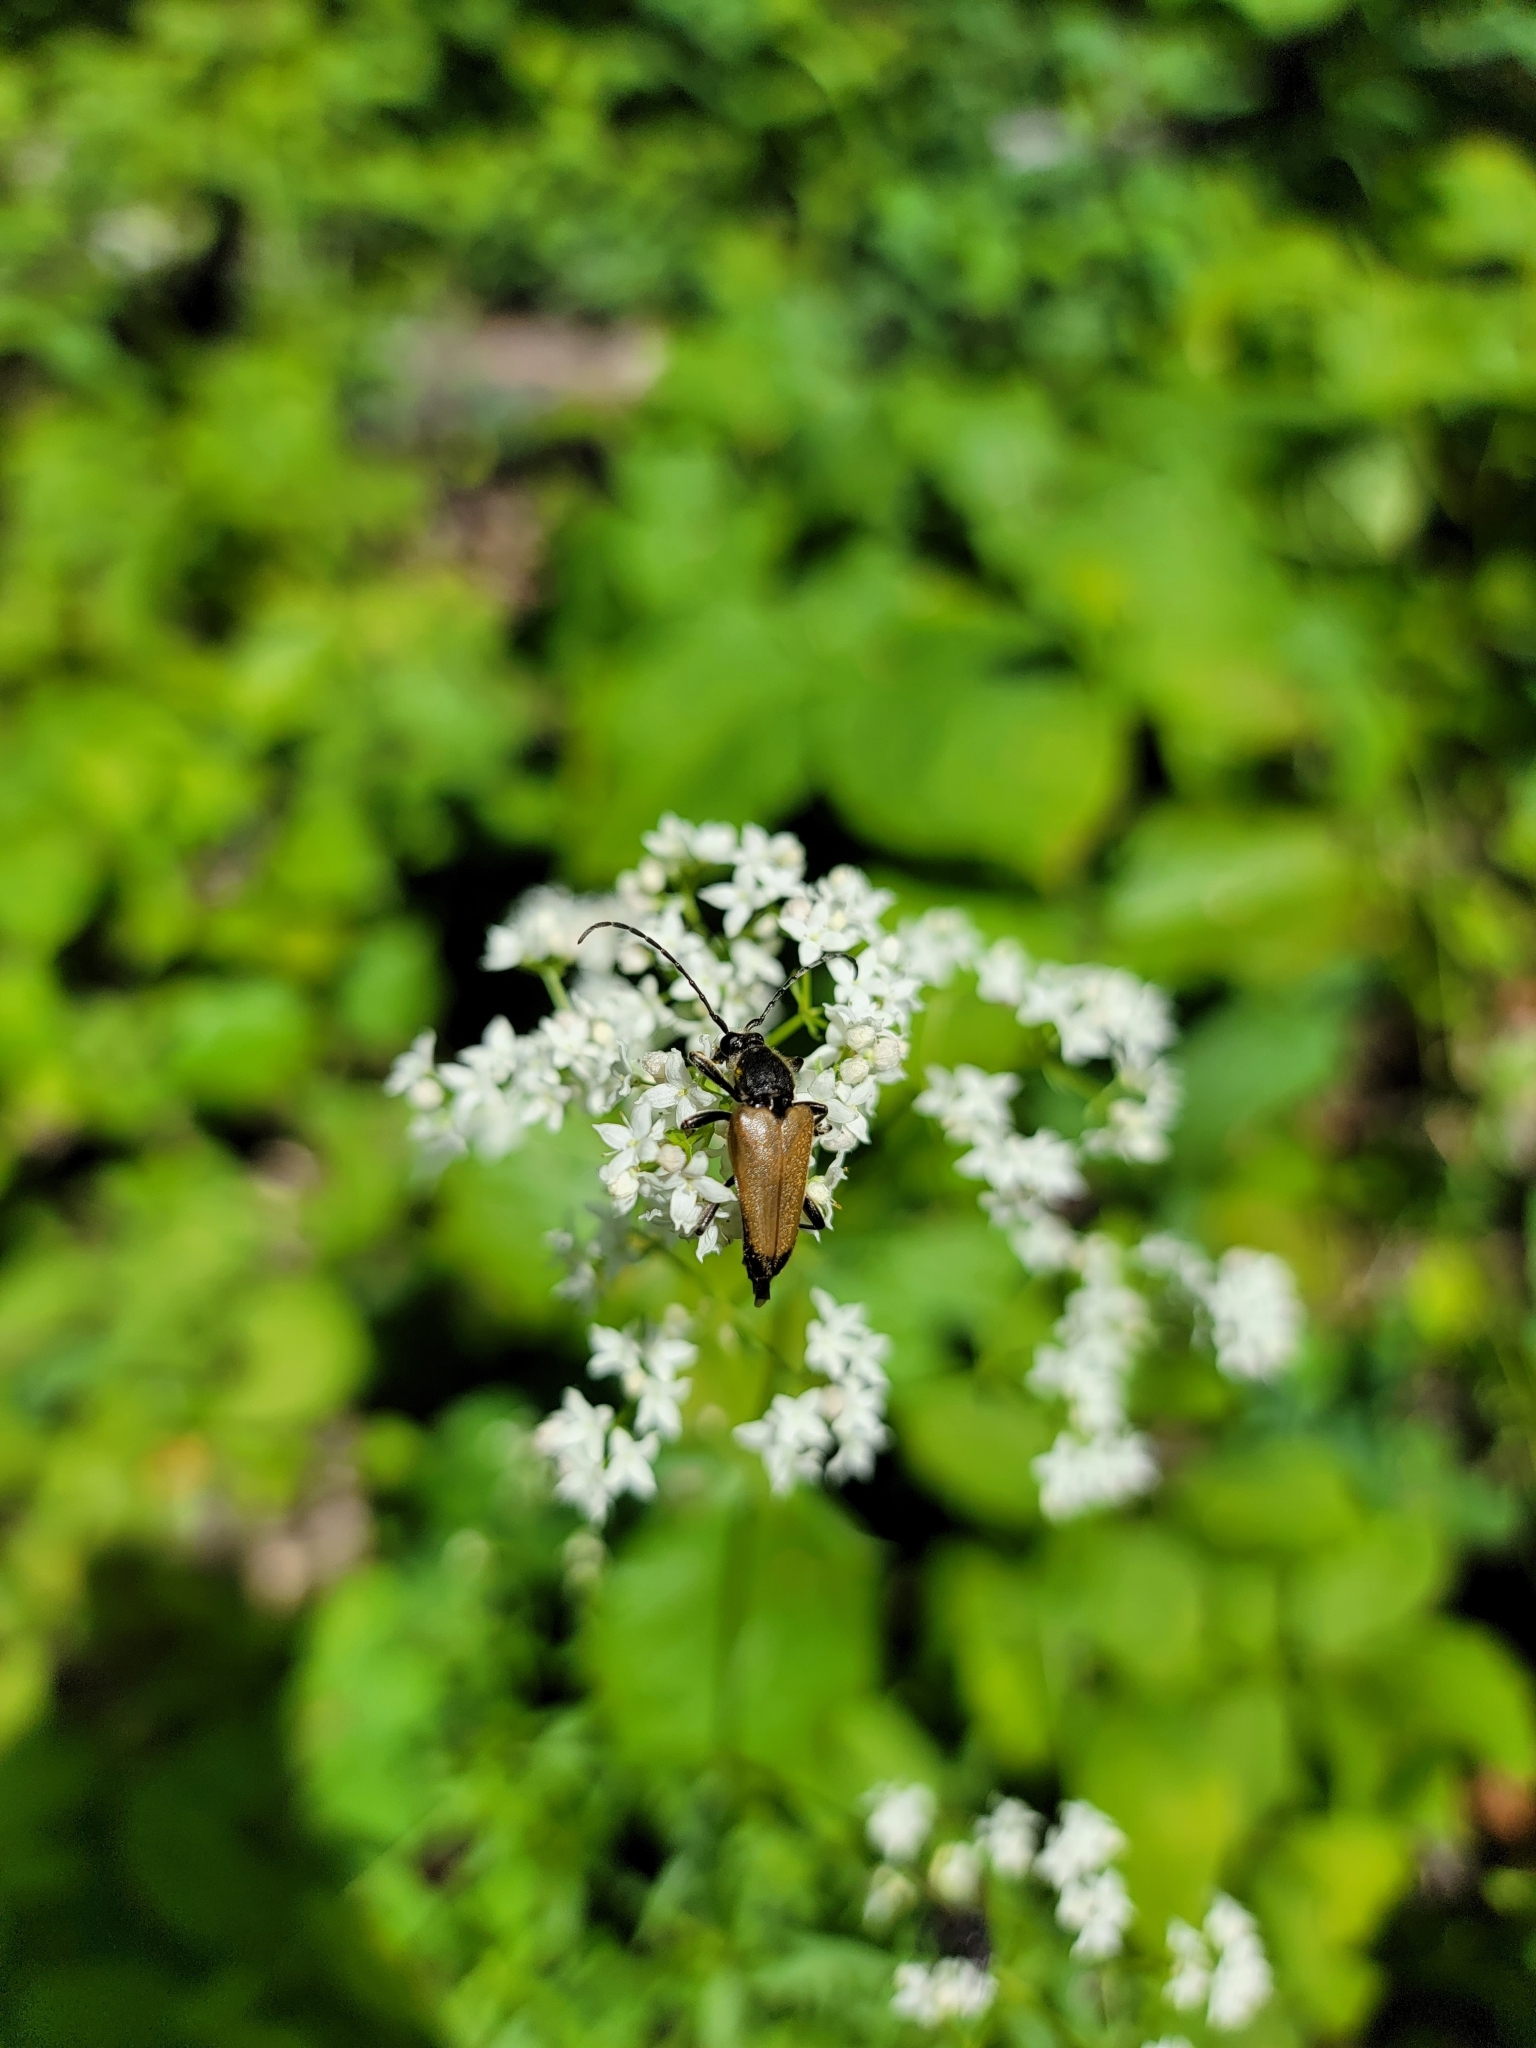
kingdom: Animalia
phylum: Arthropoda
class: Insecta
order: Coleoptera
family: Cerambycidae
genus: Cosmosalia
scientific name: Cosmosalia chrysocoma
